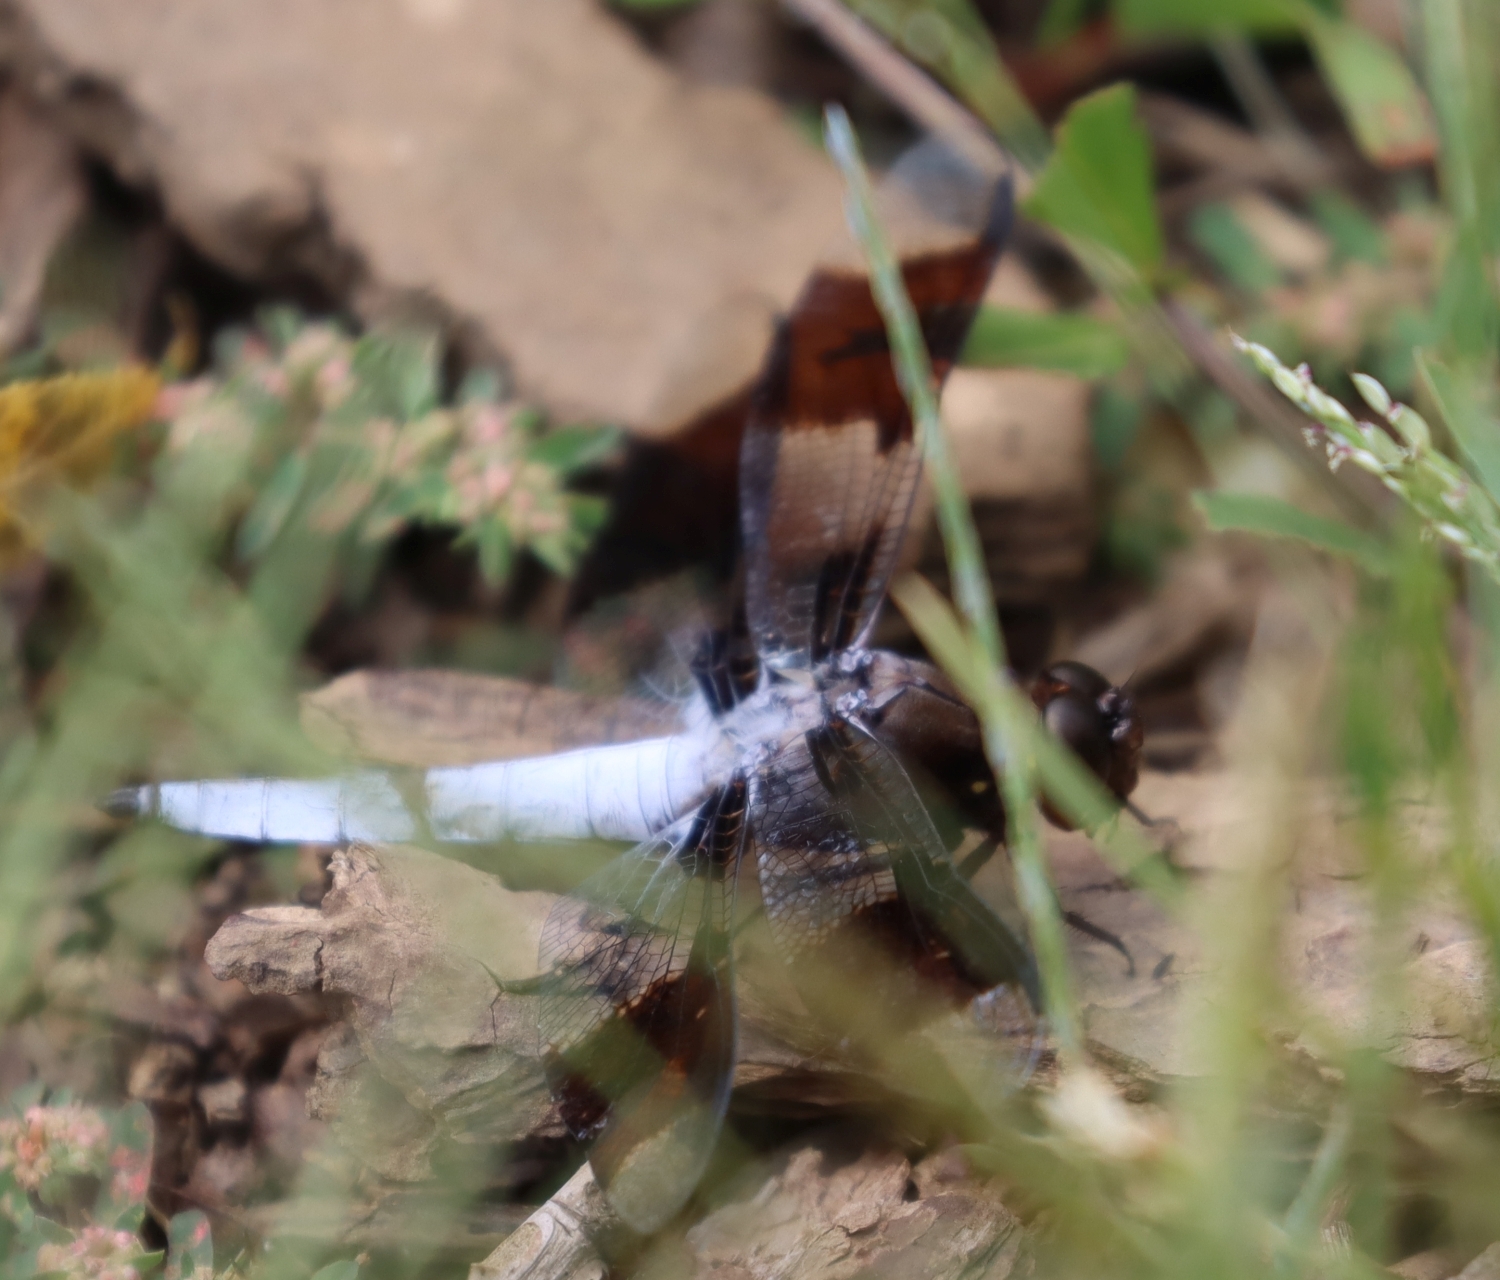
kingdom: Animalia
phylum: Arthropoda
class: Insecta
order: Odonata
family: Libellulidae
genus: Plathemis
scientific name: Plathemis lydia
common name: Common whitetail
